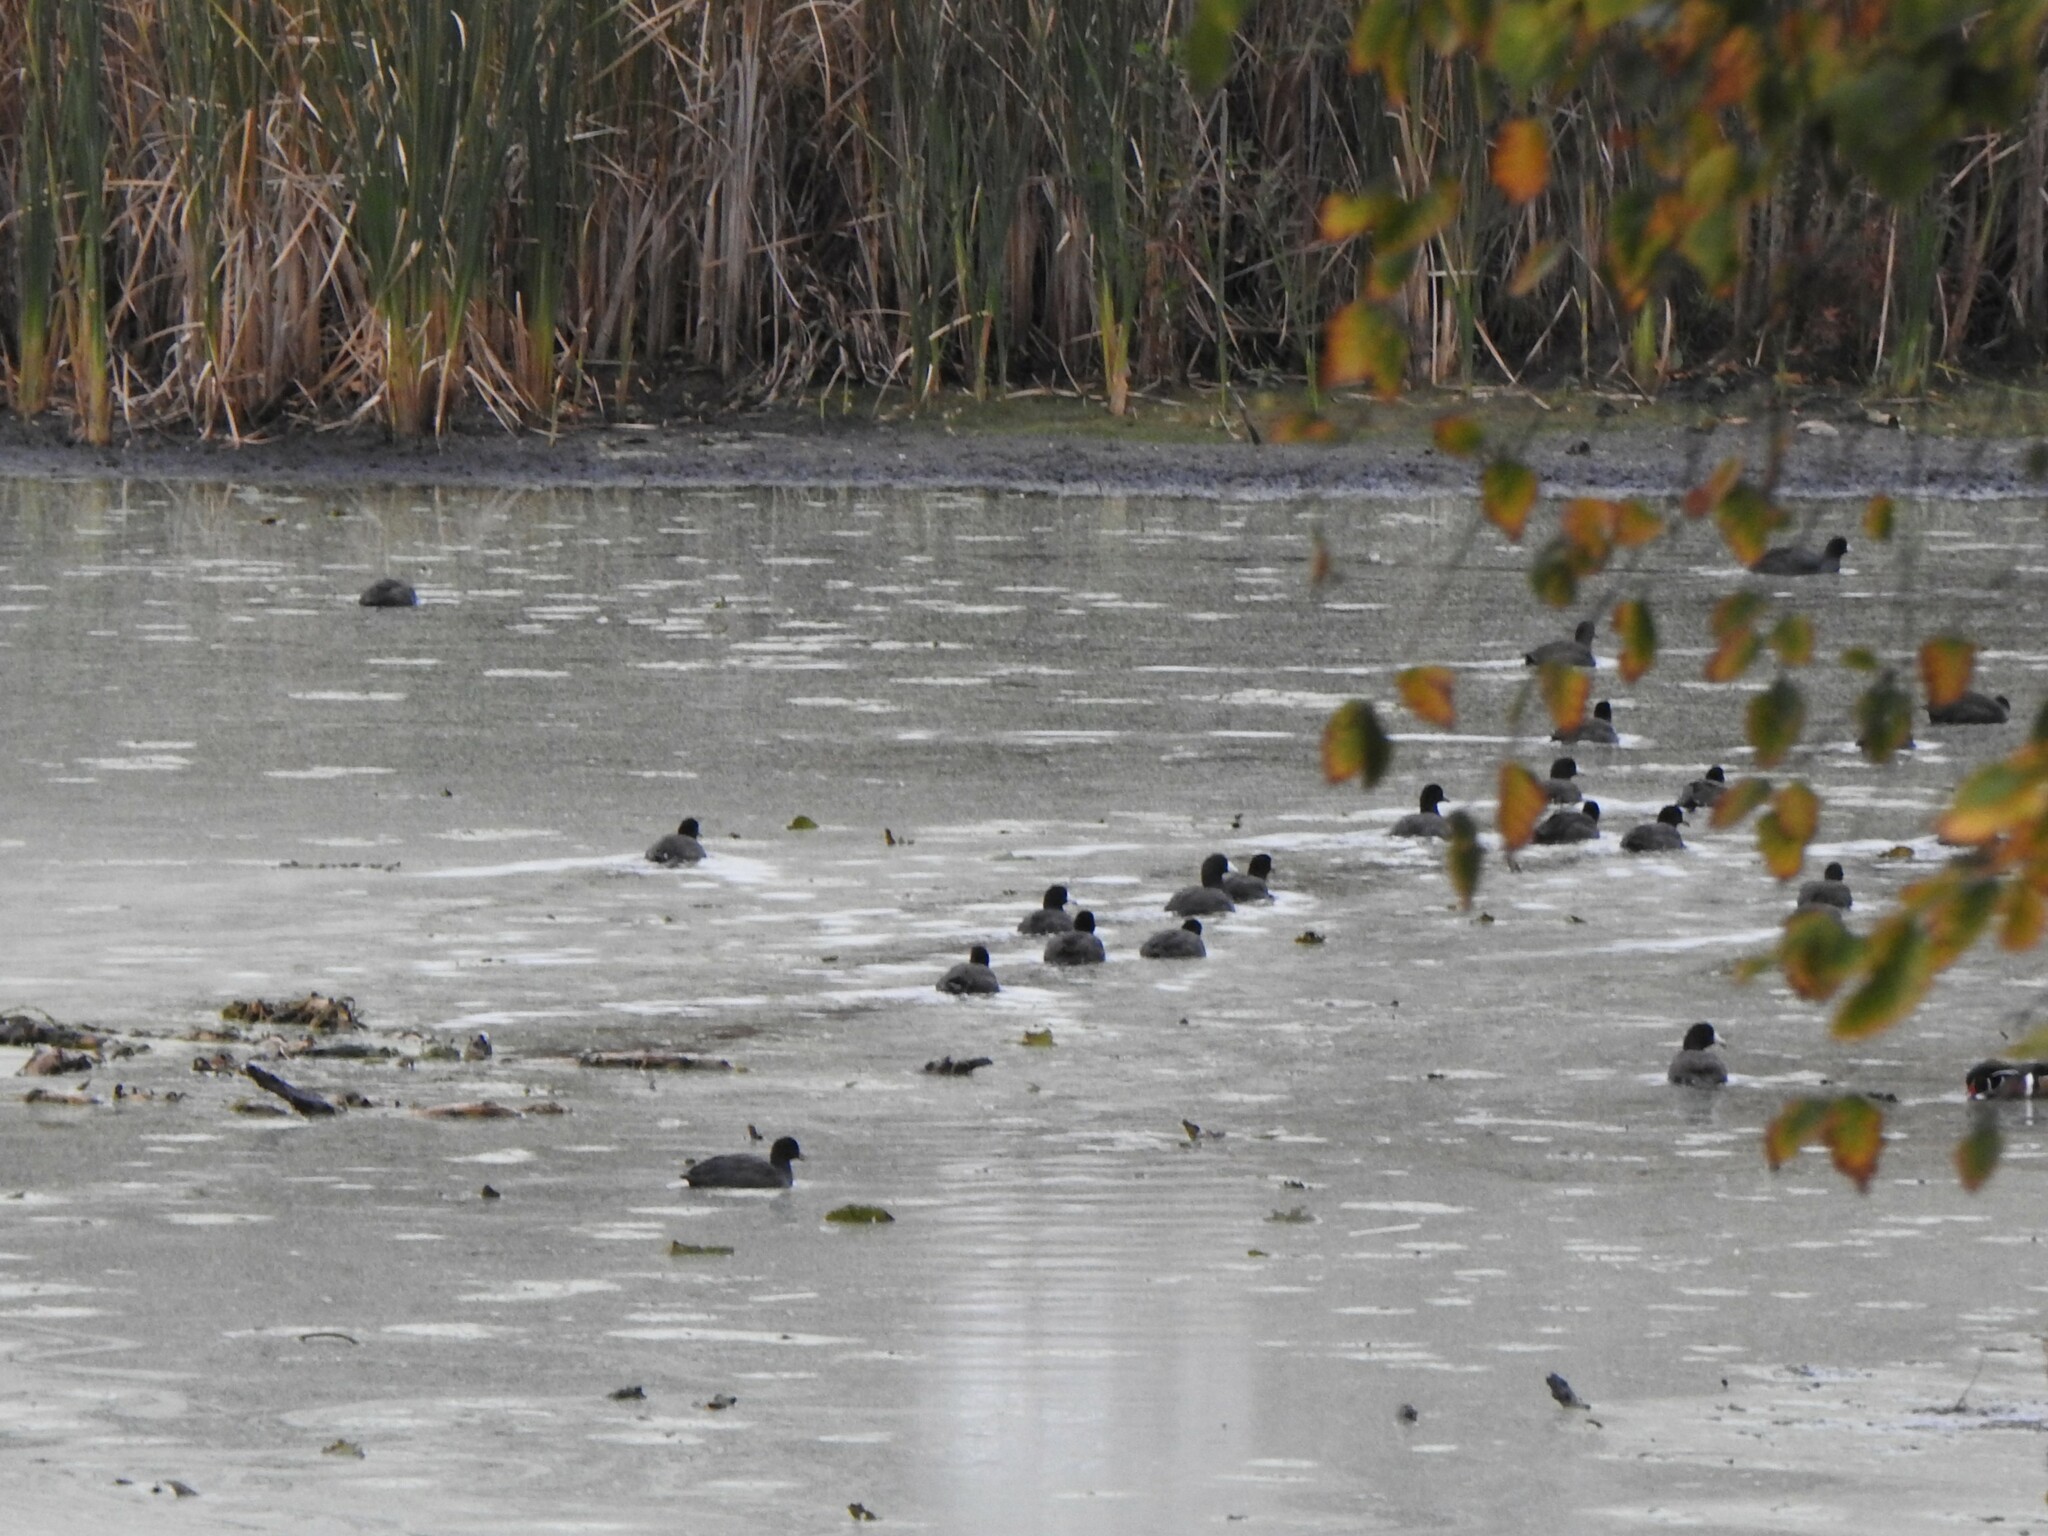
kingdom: Animalia
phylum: Chordata
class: Aves
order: Gruiformes
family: Rallidae
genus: Fulica
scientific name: Fulica americana
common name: American coot
